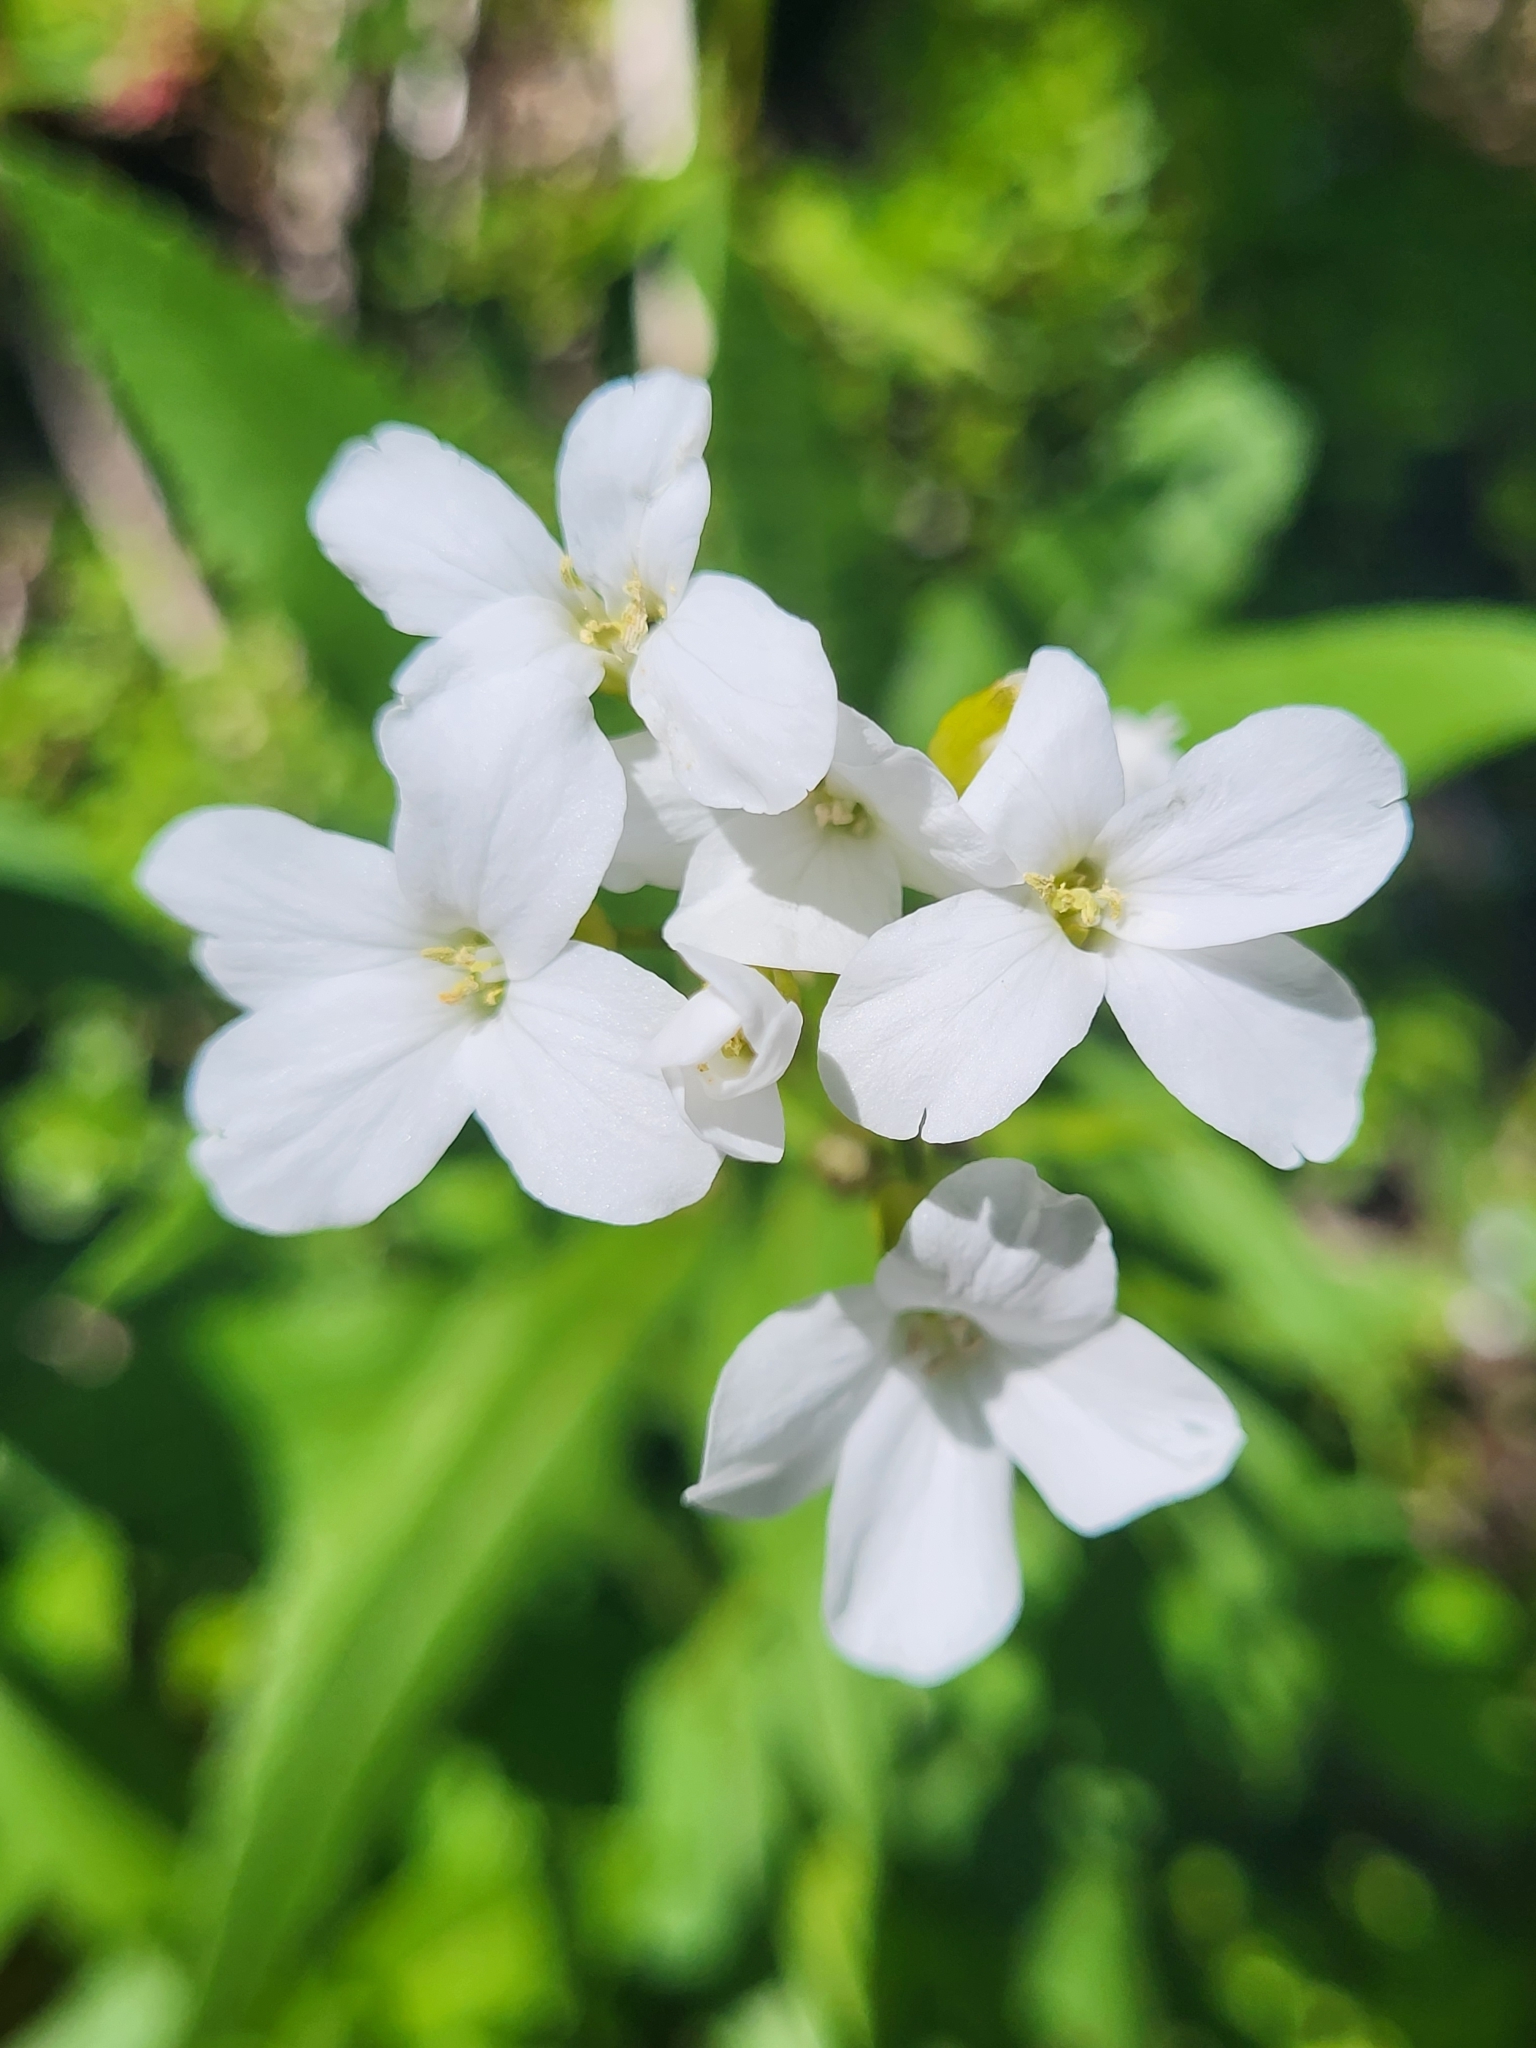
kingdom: Plantae
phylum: Tracheophyta
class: Magnoliopsida
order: Brassicales
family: Brassicaceae
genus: Cardamine
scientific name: Cardamine bulbifera
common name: Coralroot bittercress
